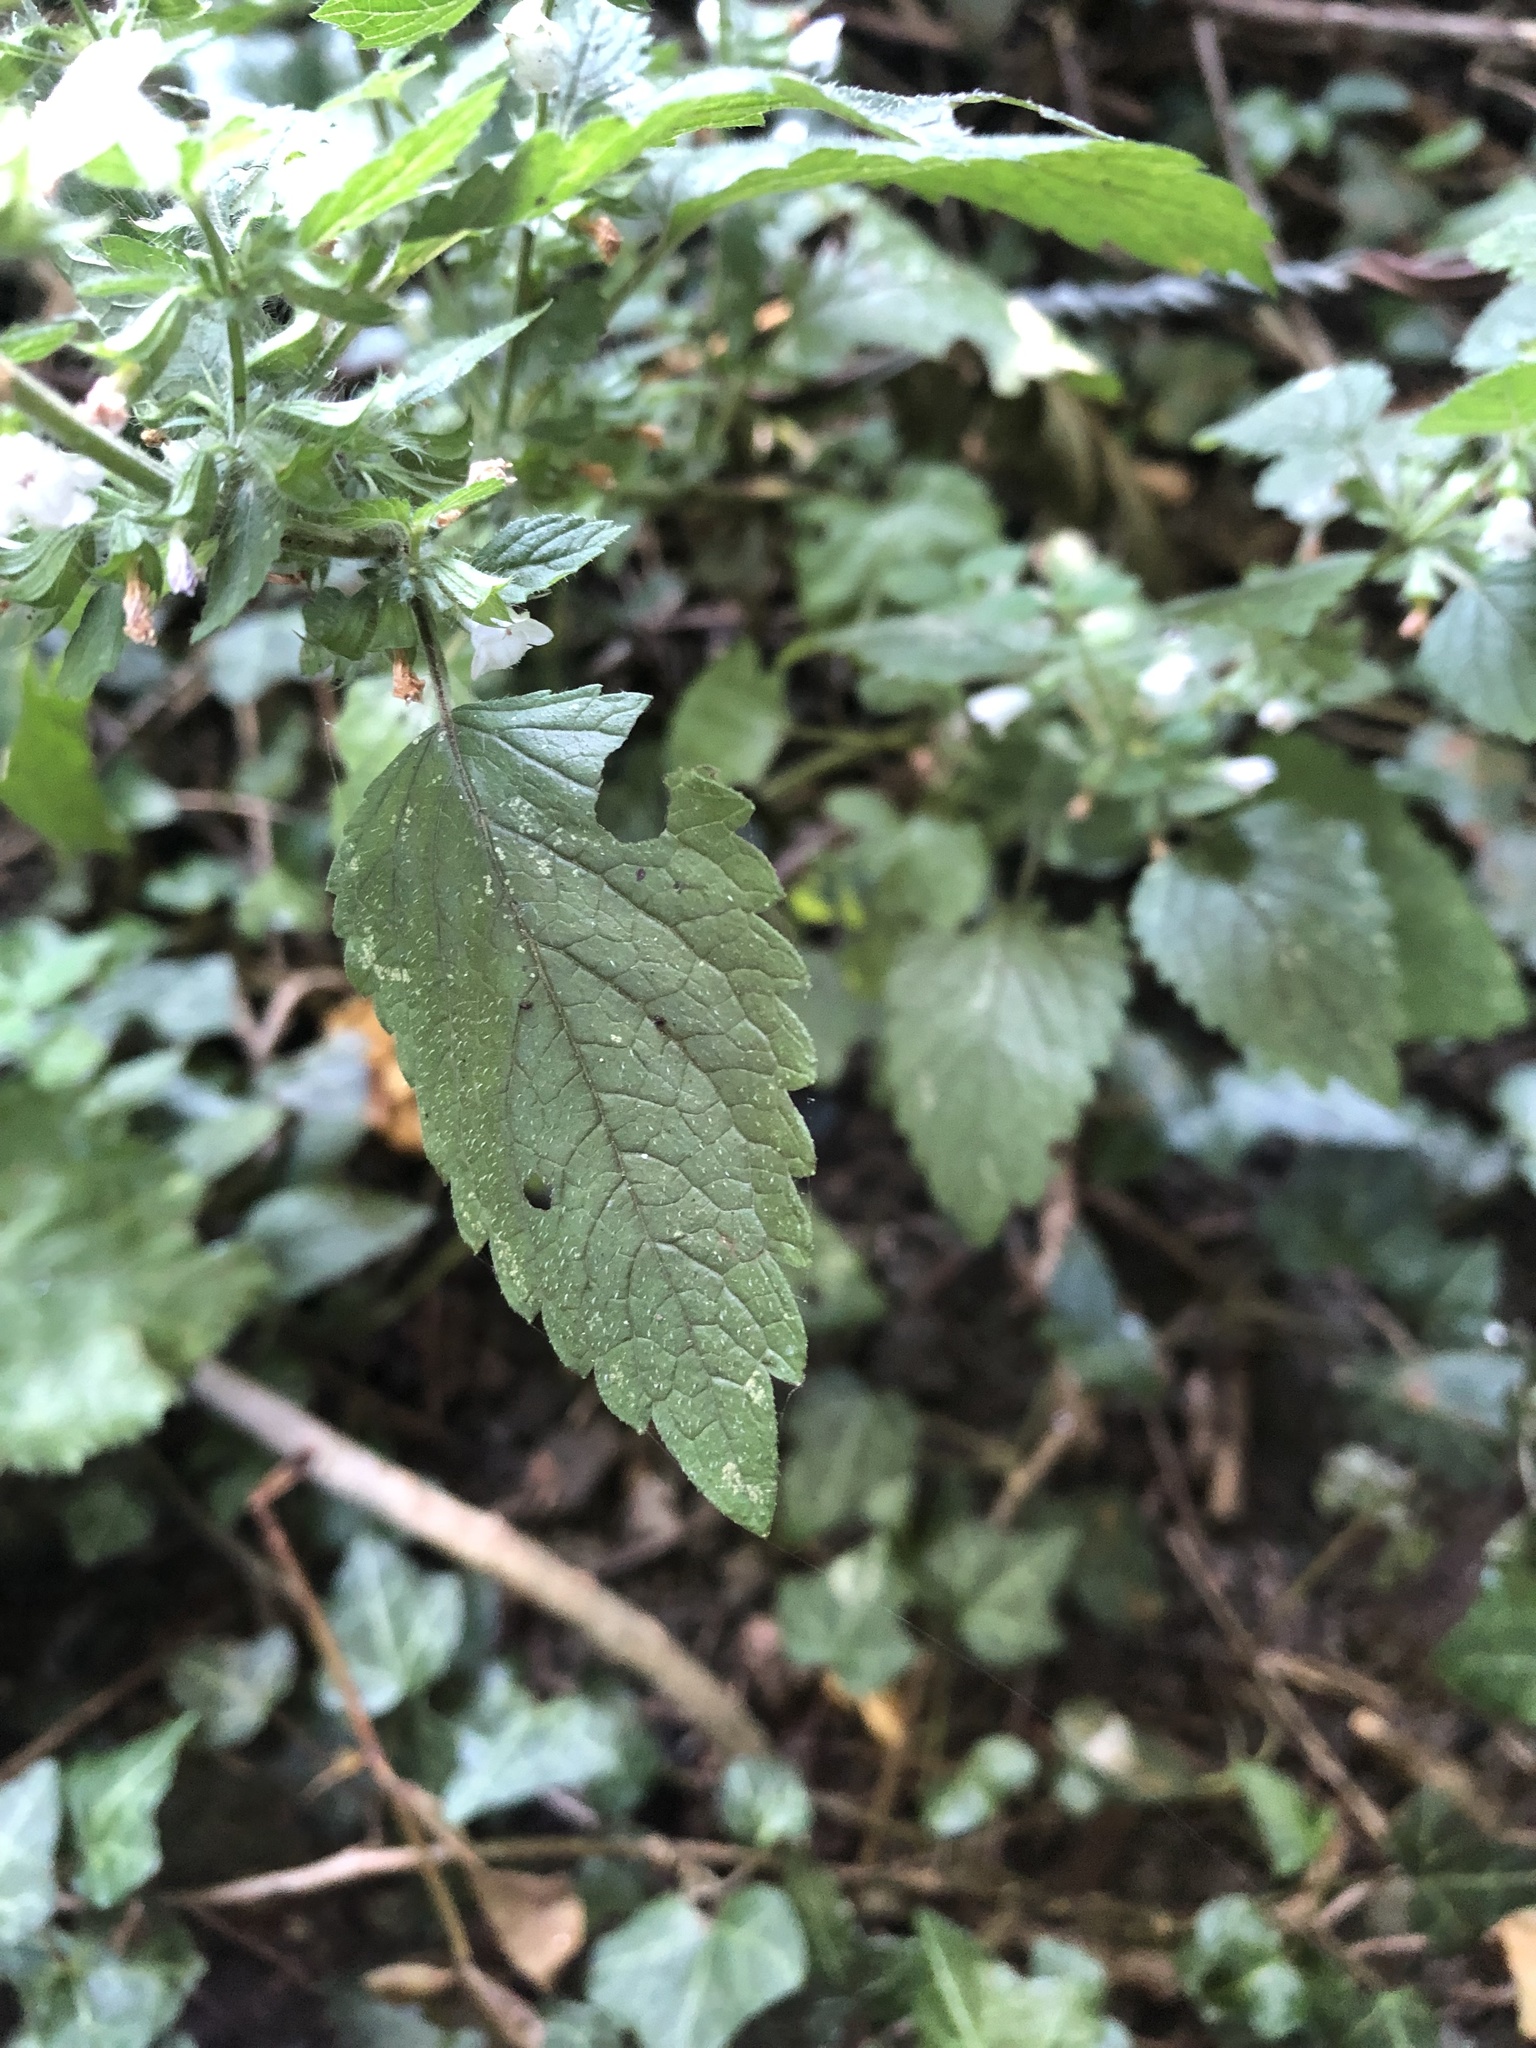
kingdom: Plantae
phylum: Tracheophyta
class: Magnoliopsida
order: Lamiales
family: Lamiaceae
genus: Melissa
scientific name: Melissa officinalis
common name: Balm
